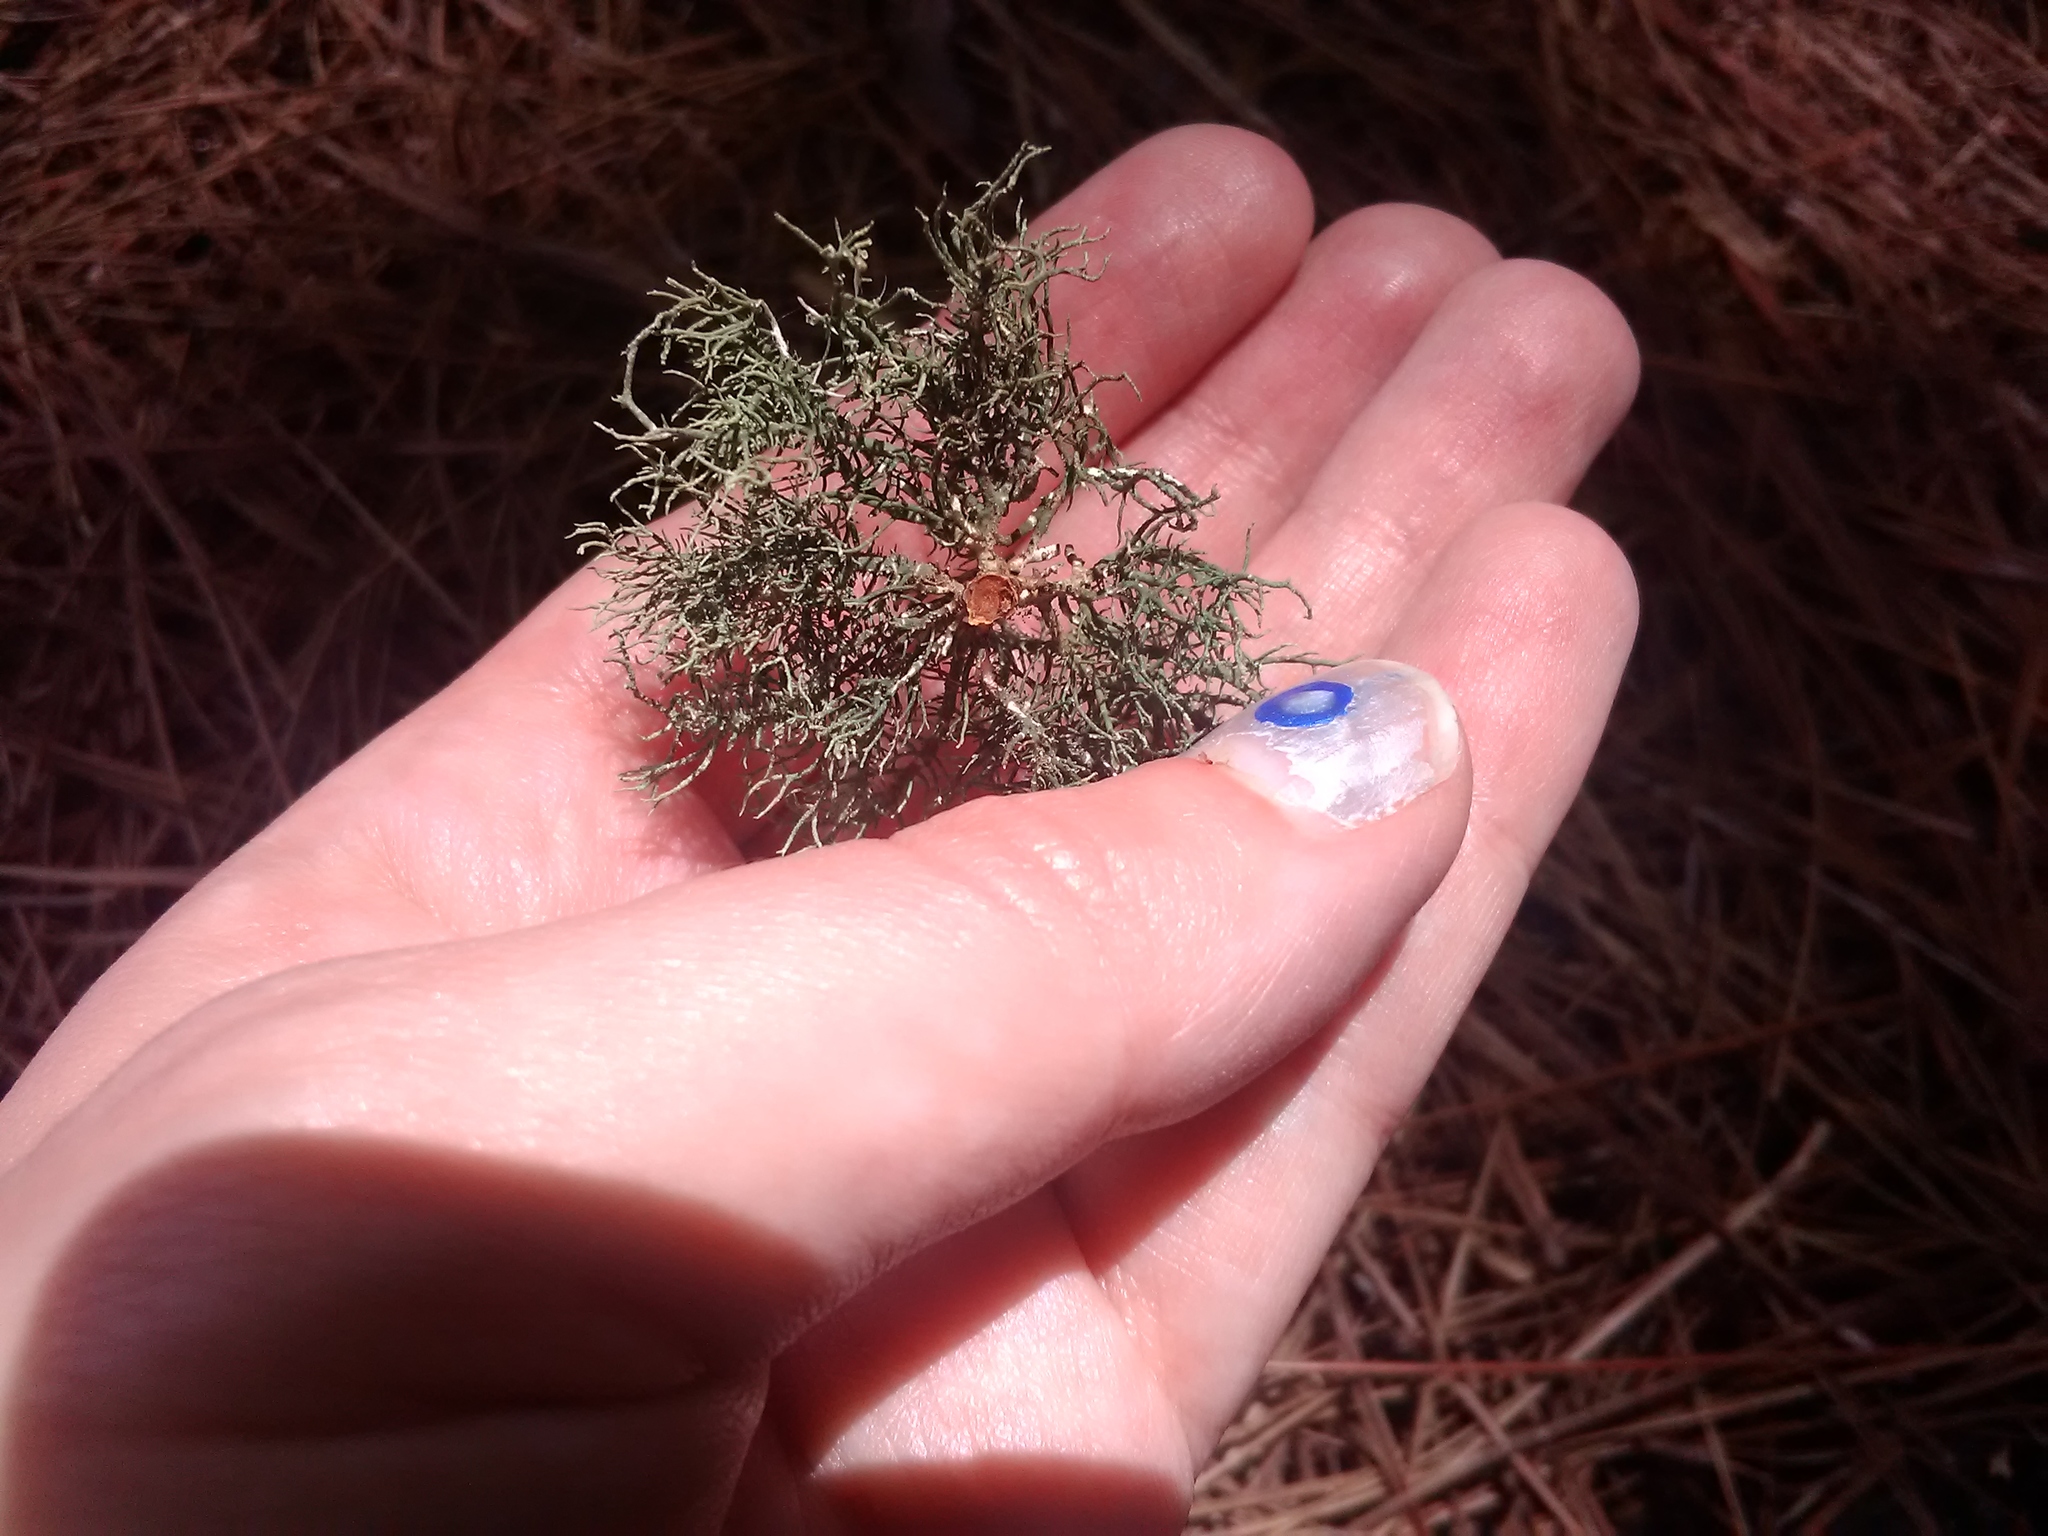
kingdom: Fungi
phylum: Ascomycota
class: Lecanoromycetes
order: Lecanorales
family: Parmeliaceae
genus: Usnea
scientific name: Usnea strigosa
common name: Bushy beard lichen
